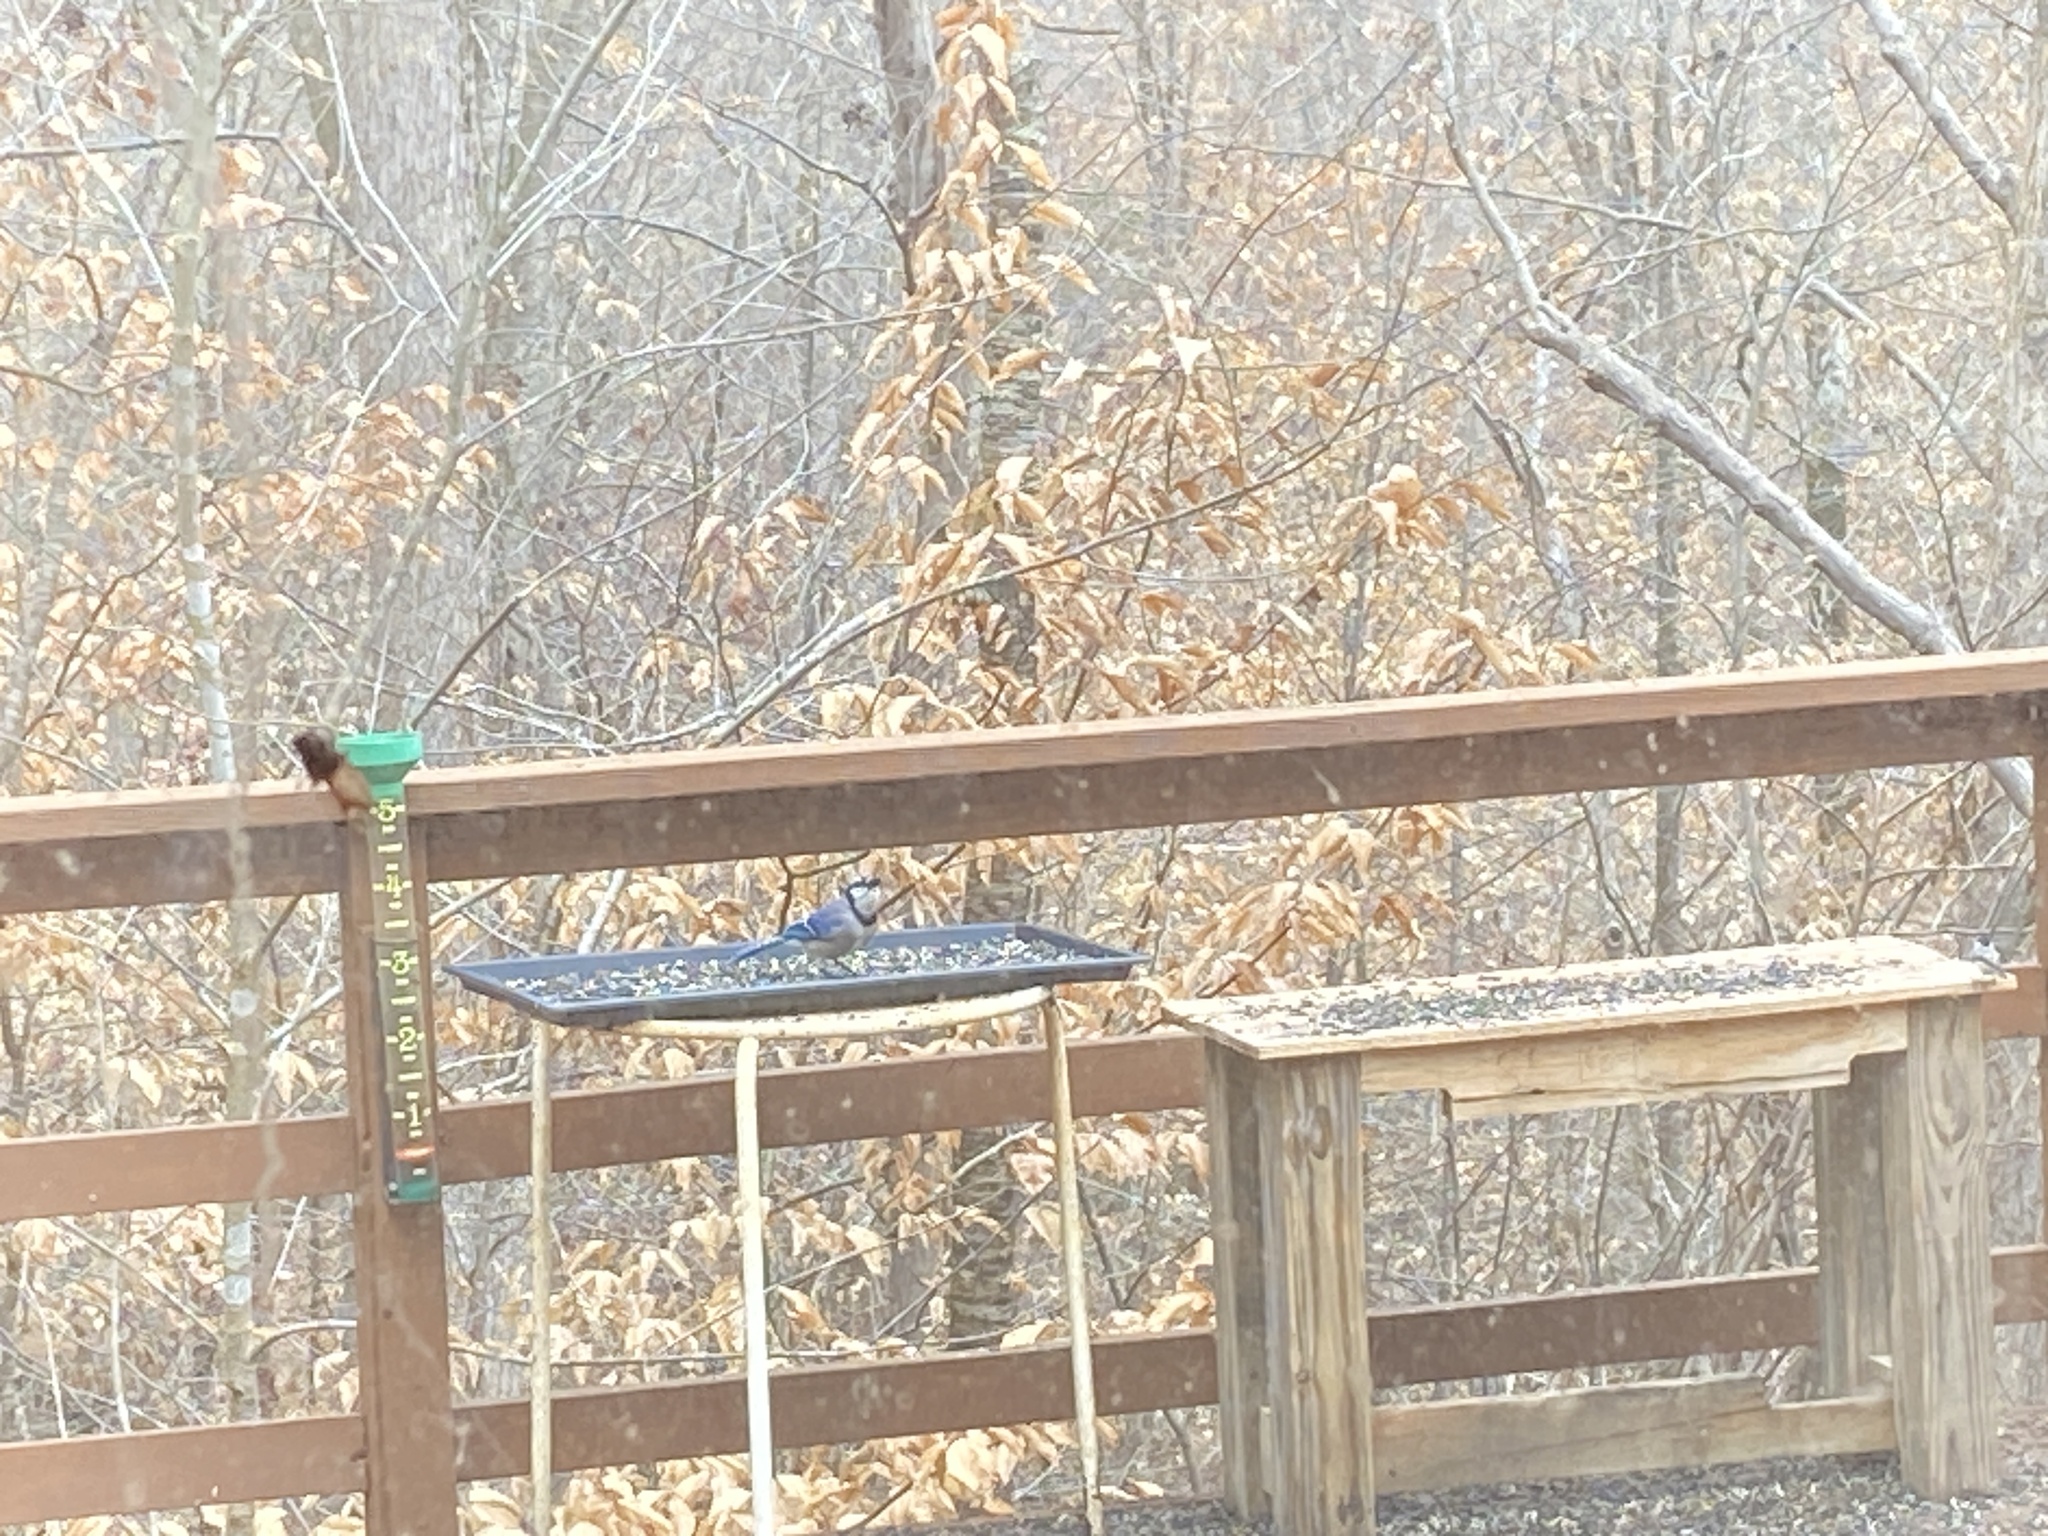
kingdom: Animalia
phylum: Chordata
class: Aves
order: Passeriformes
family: Corvidae
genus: Cyanocitta
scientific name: Cyanocitta cristata
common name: Blue jay
